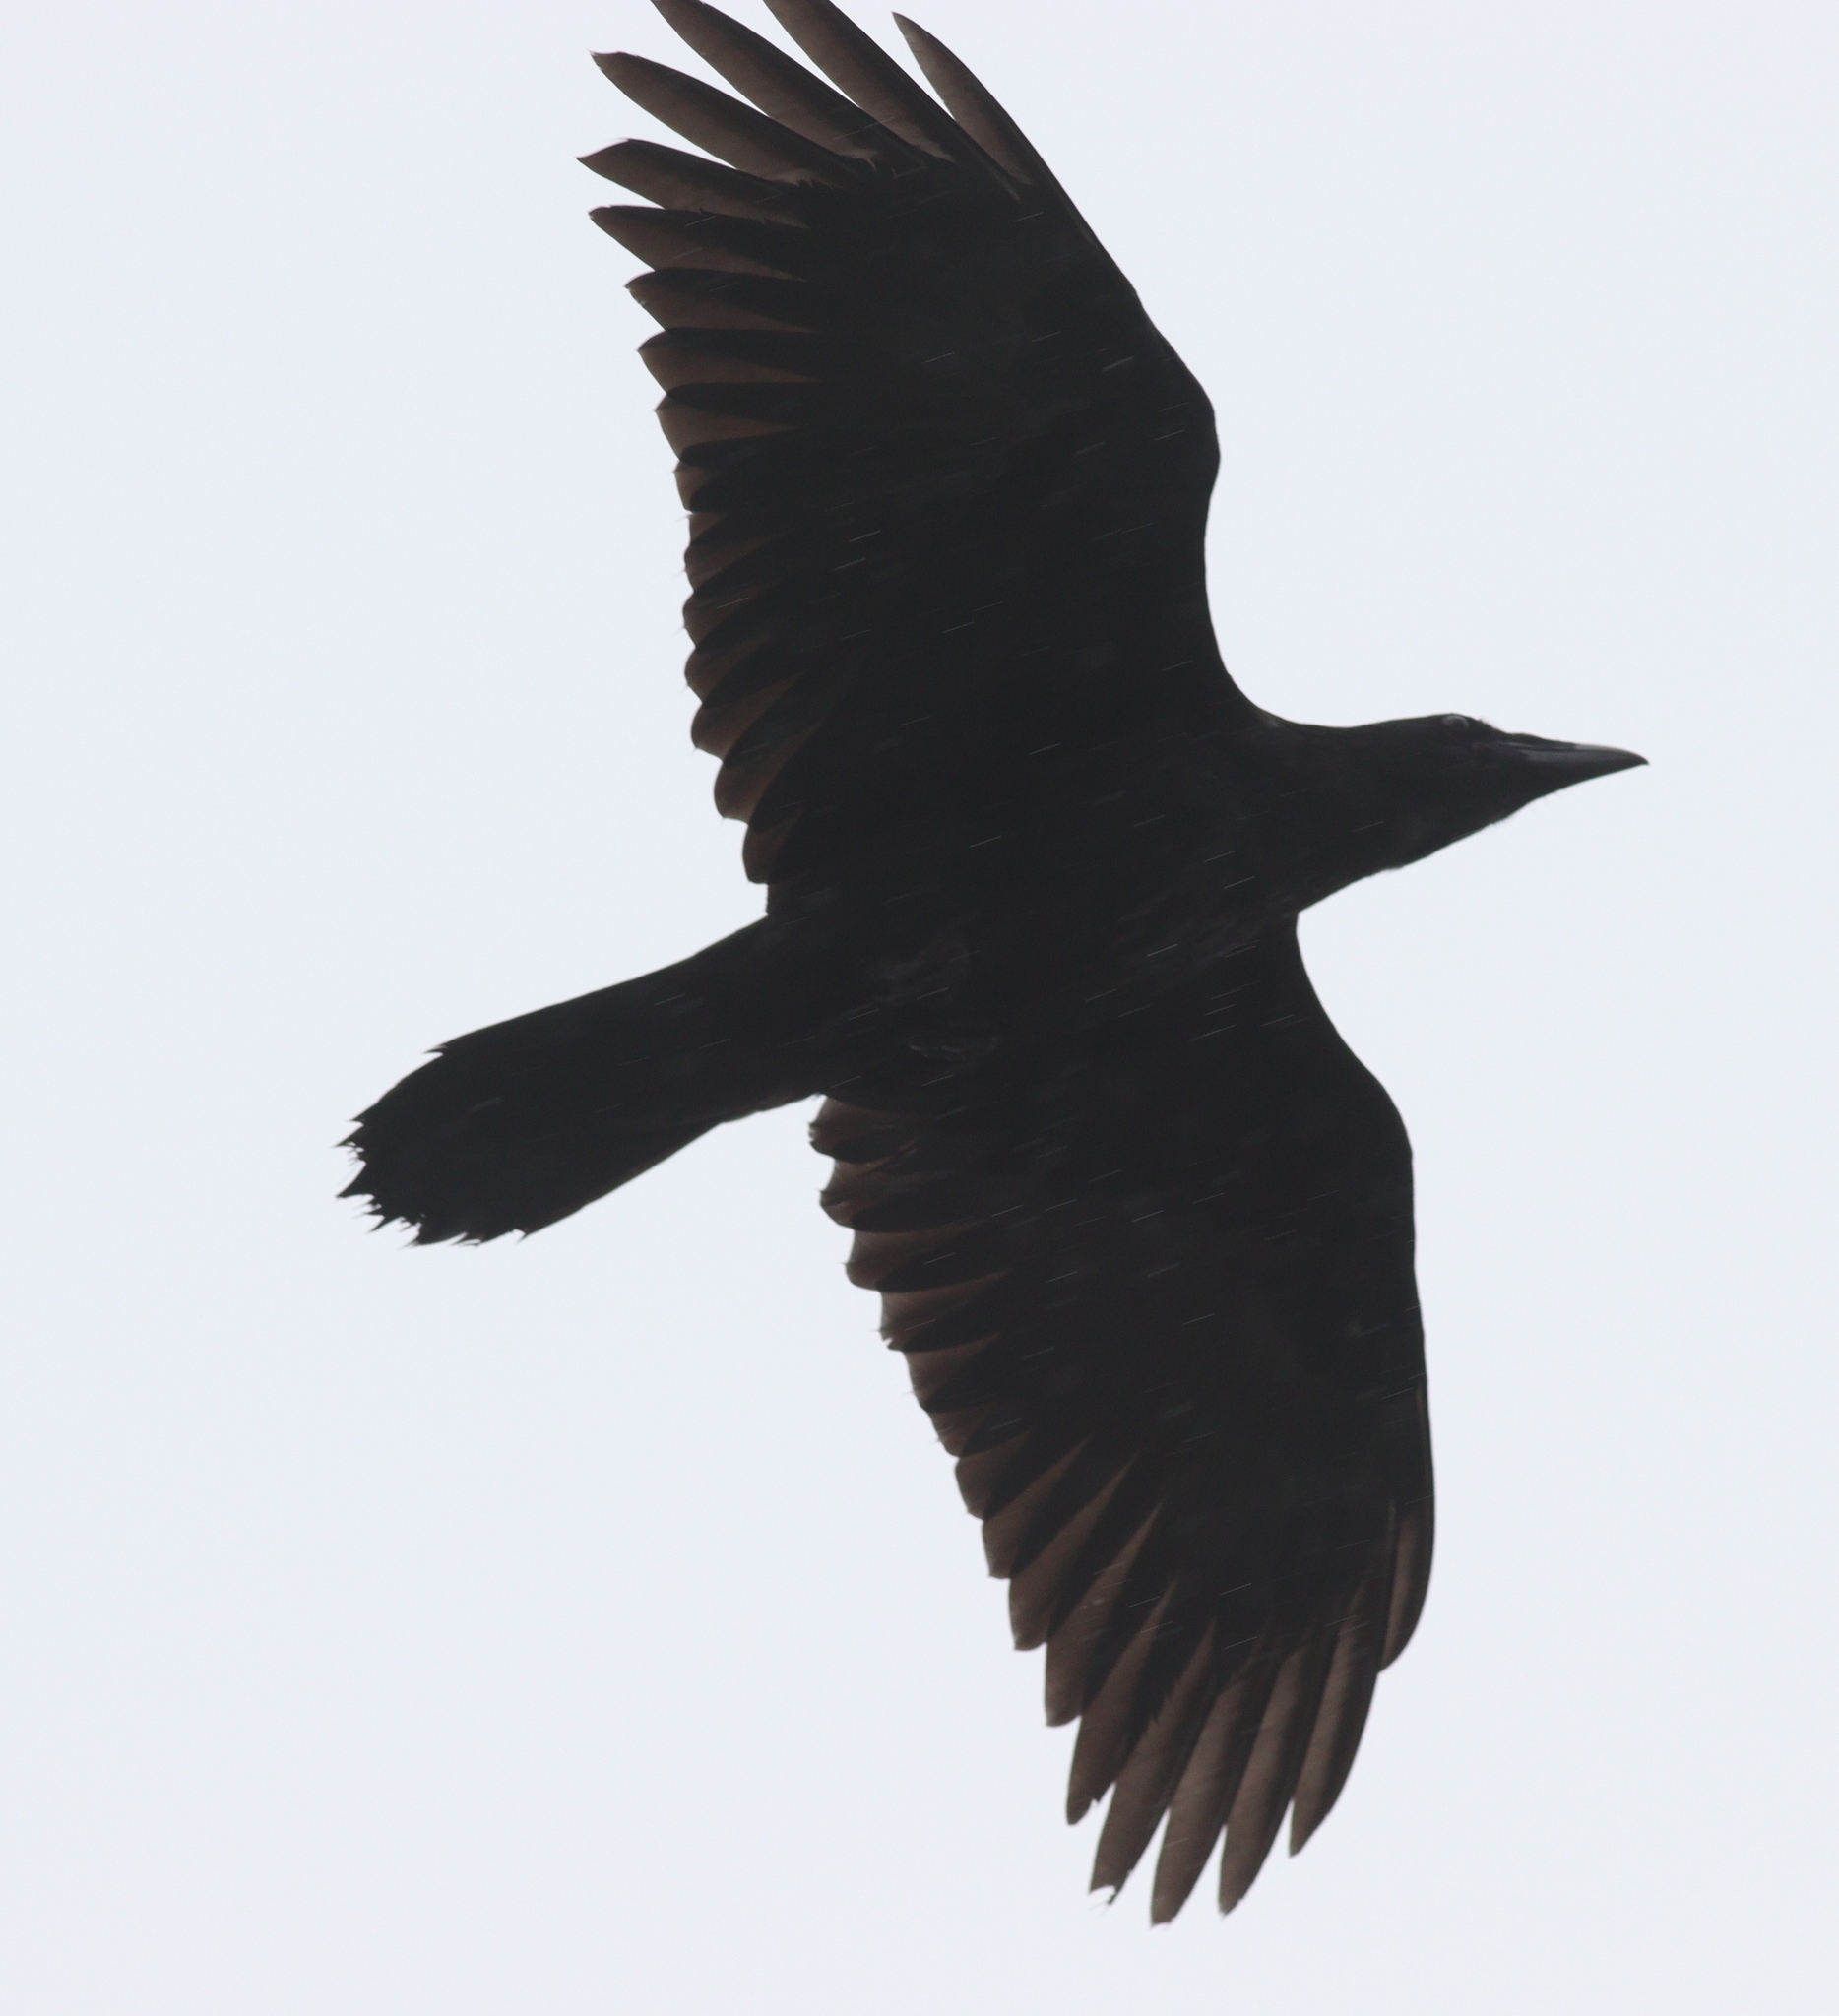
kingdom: Animalia
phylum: Chordata
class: Aves
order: Passeriformes
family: Corvidae
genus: Corvus
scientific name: Corvus corax
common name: Common raven
